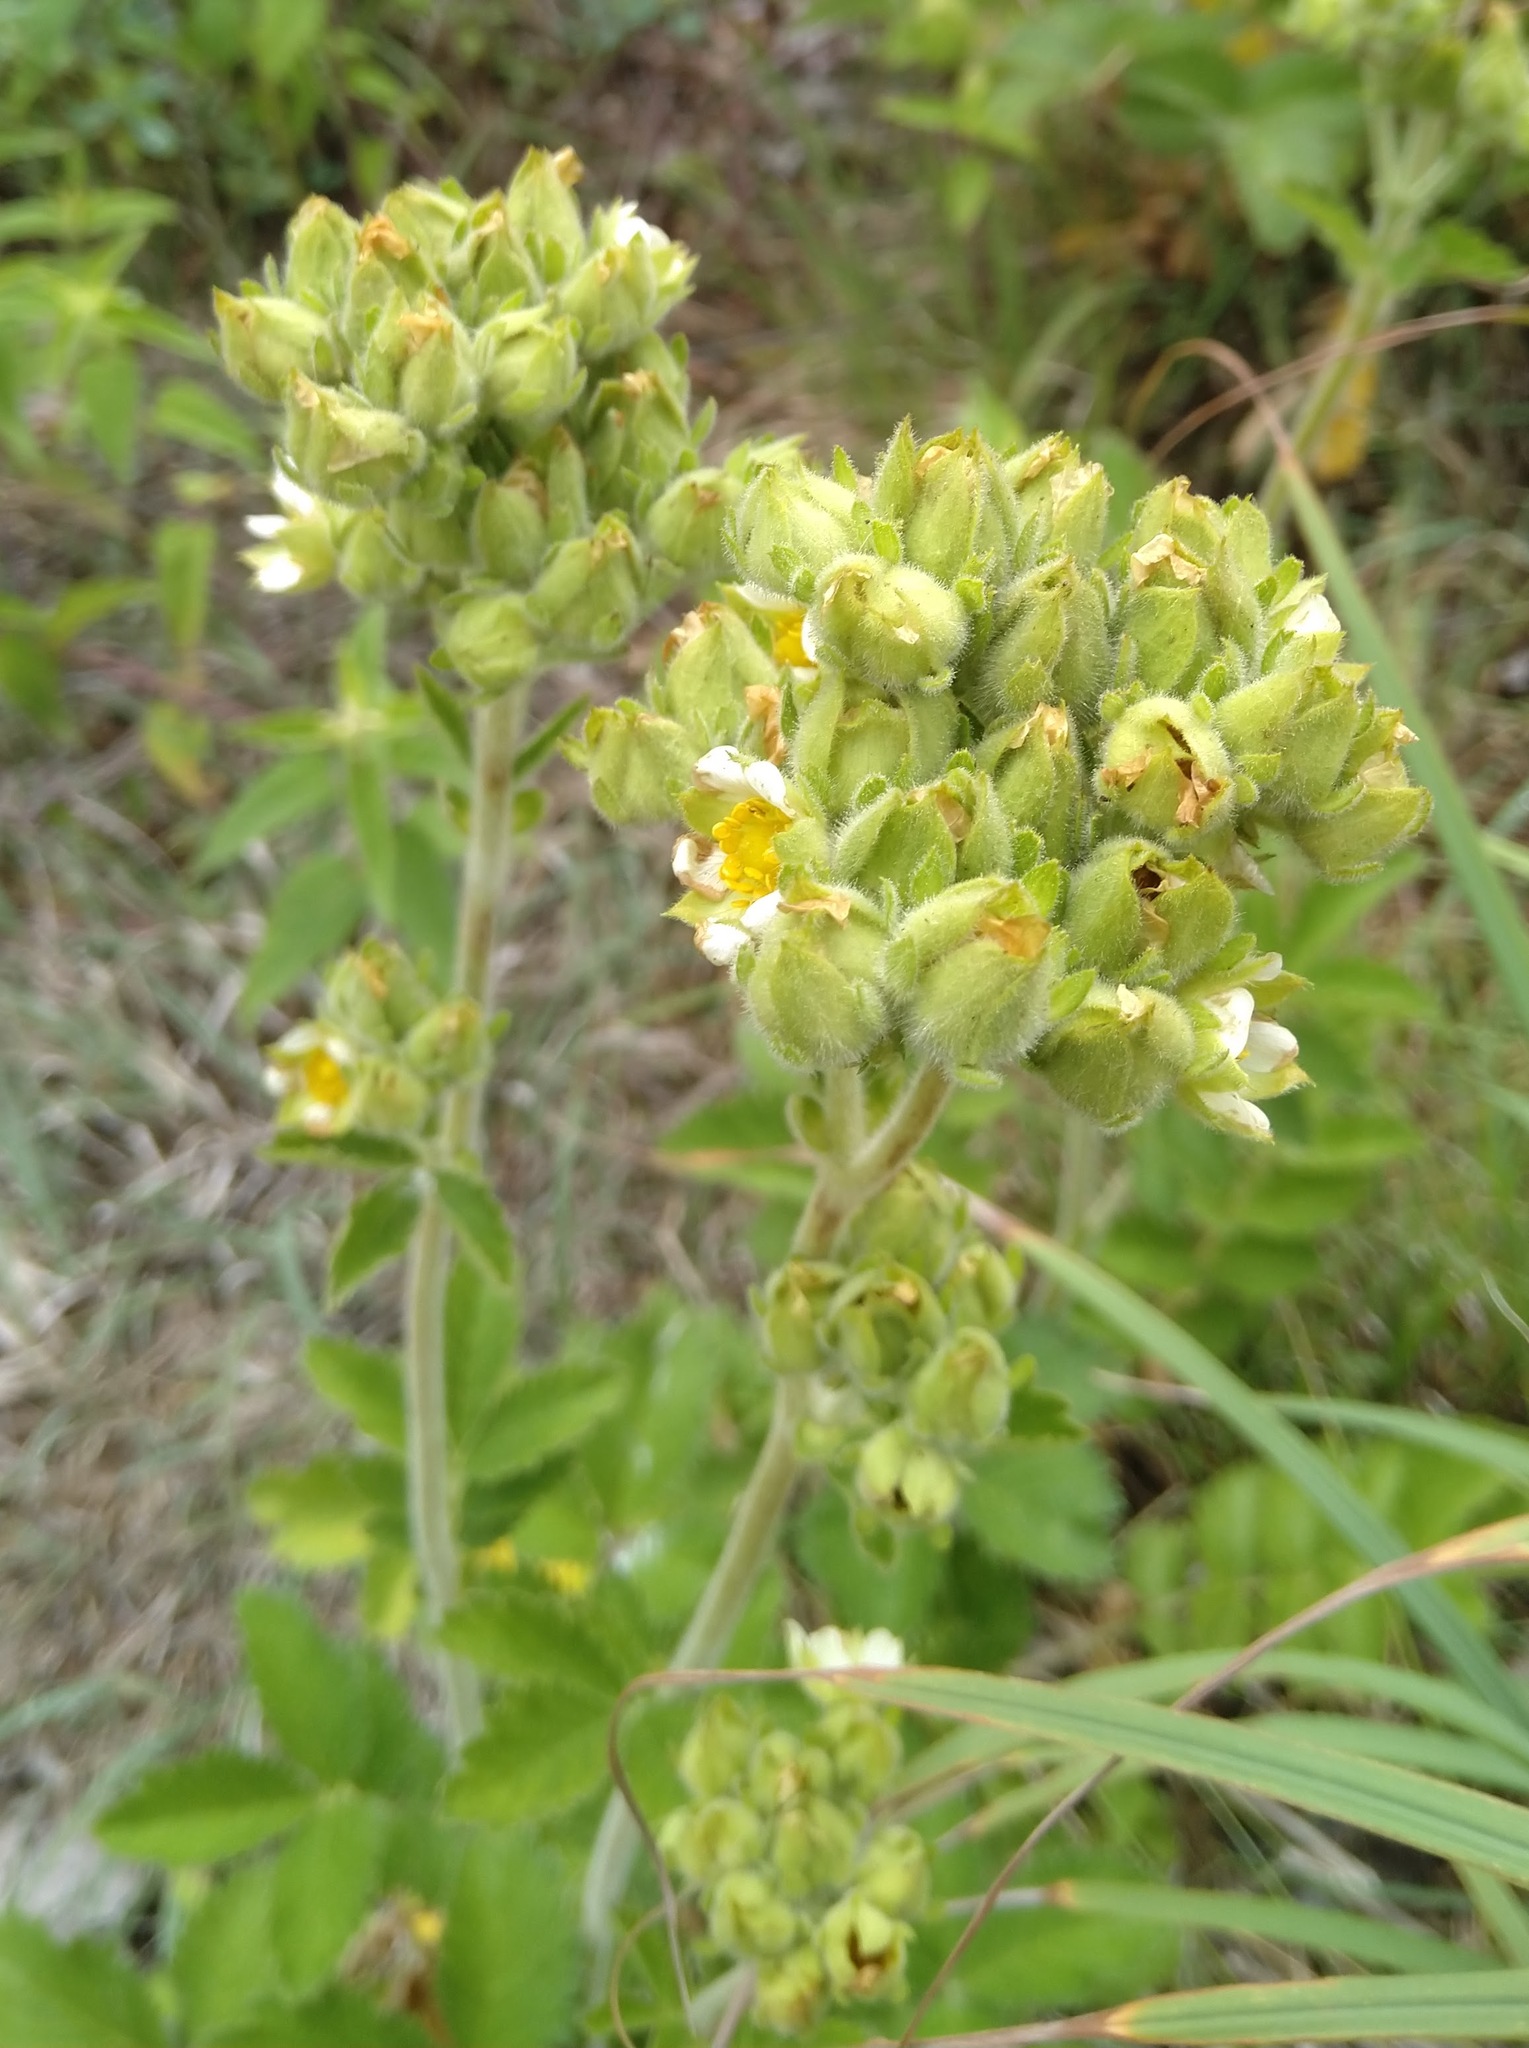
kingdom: Plantae
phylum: Tracheophyta
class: Magnoliopsida
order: Rosales
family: Rosaceae
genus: Drymocallis
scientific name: Drymocallis arguta
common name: Tall cinquefoil
